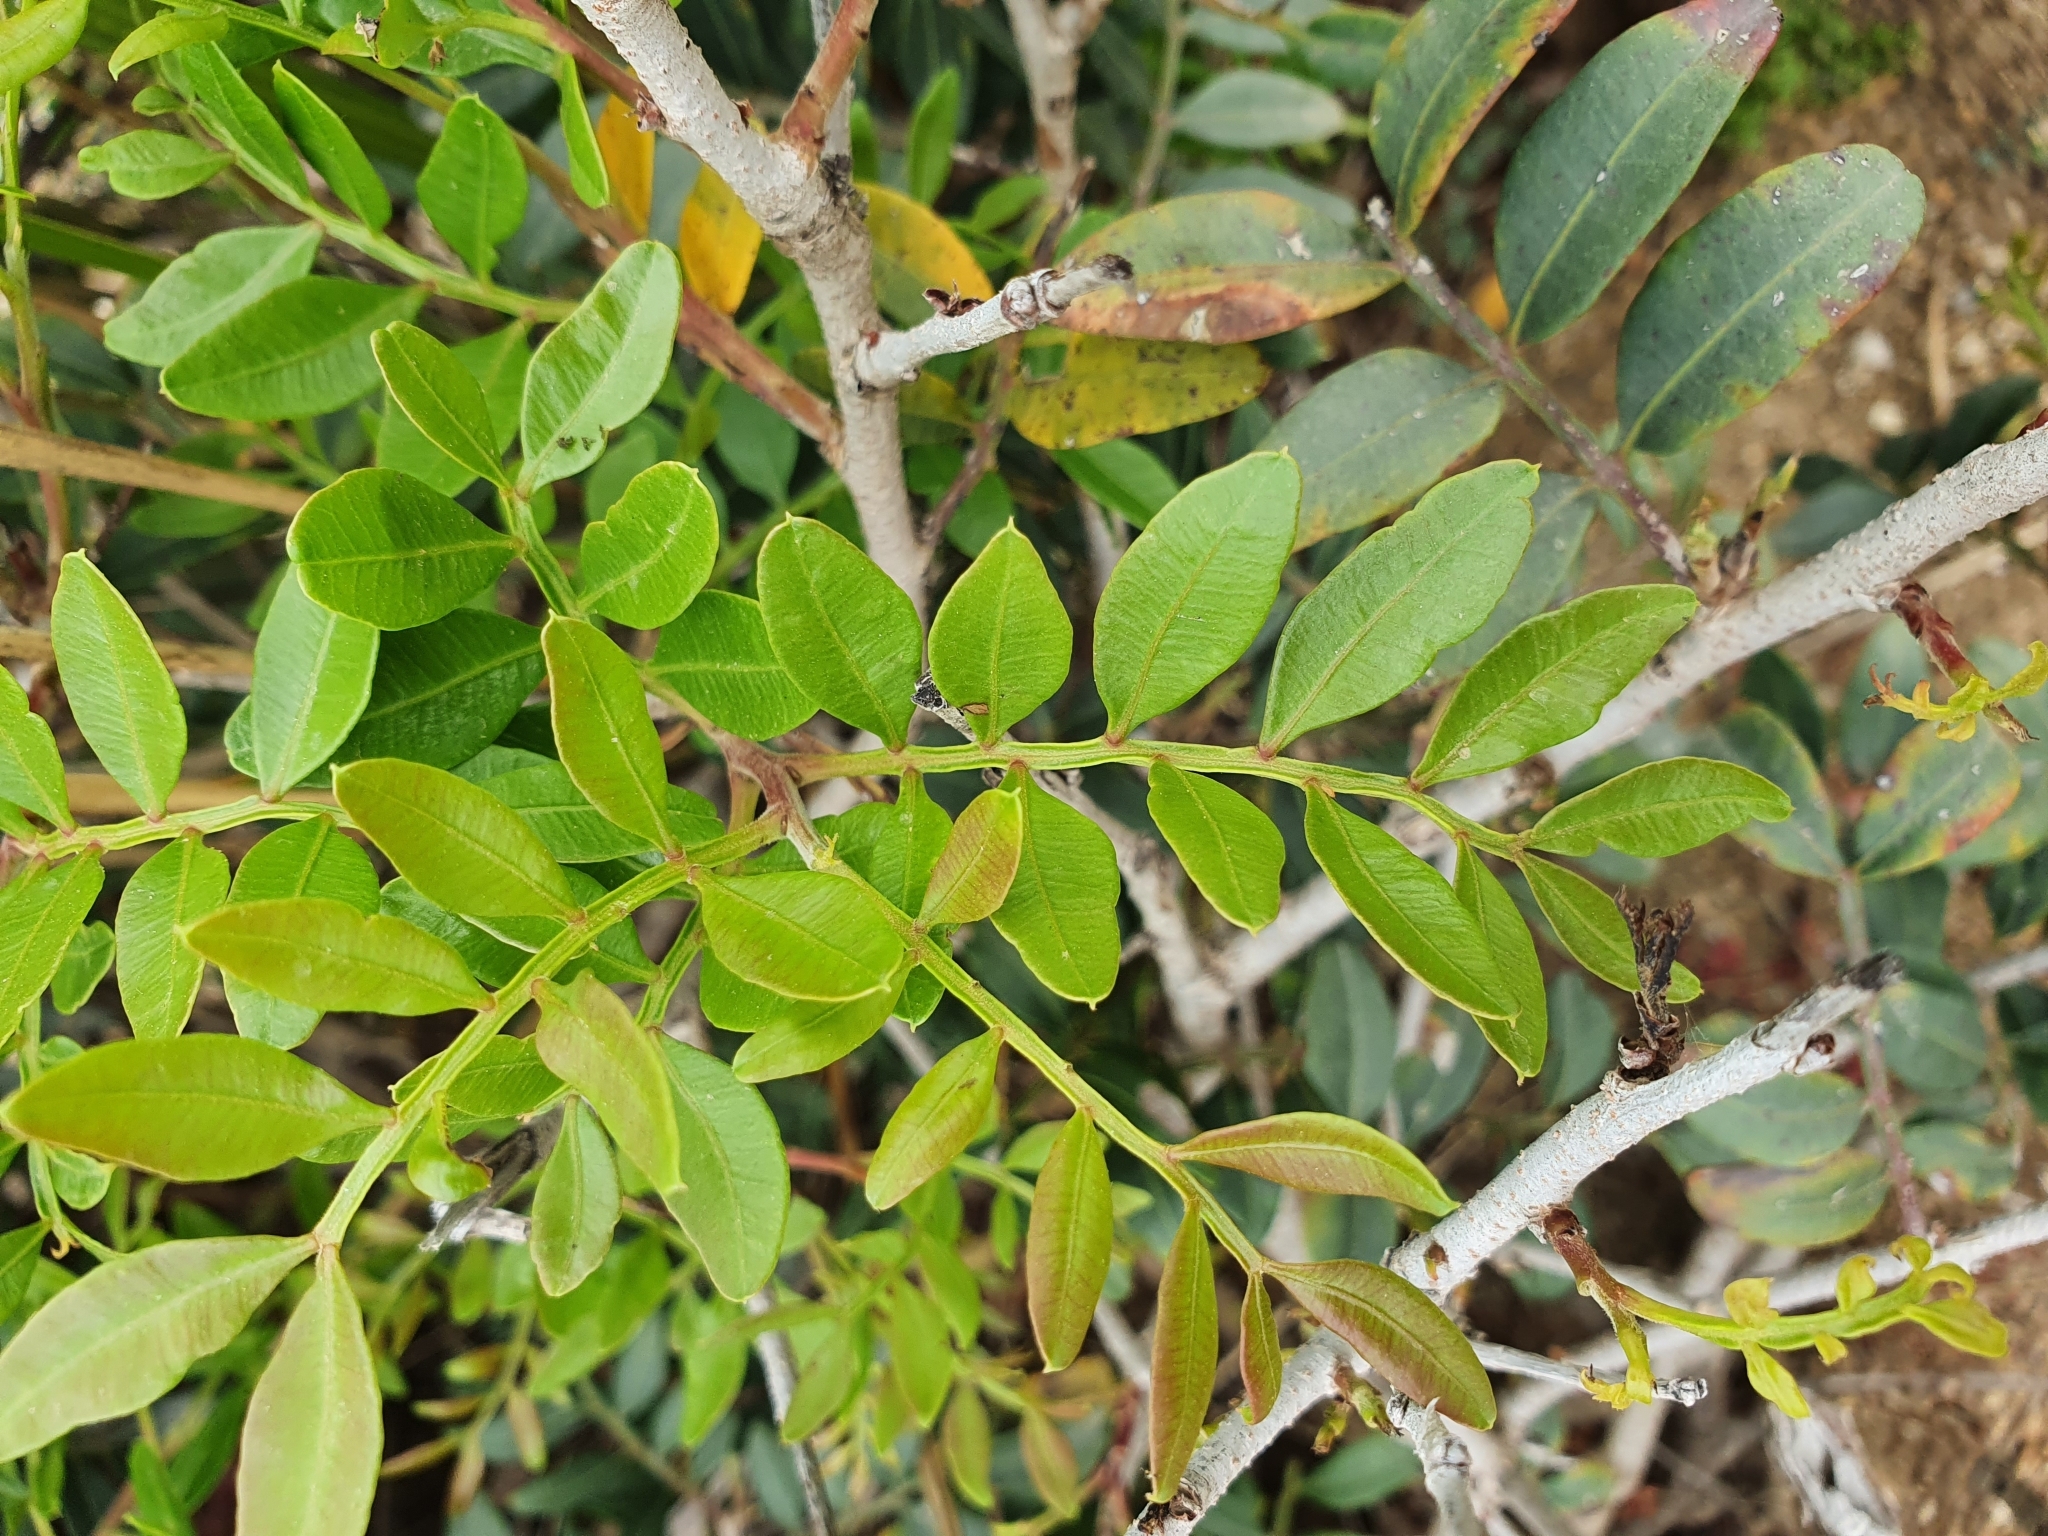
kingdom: Plantae
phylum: Tracheophyta
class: Magnoliopsida
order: Sapindales
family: Anacardiaceae
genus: Pistacia
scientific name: Pistacia lentiscus
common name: Lentisk
